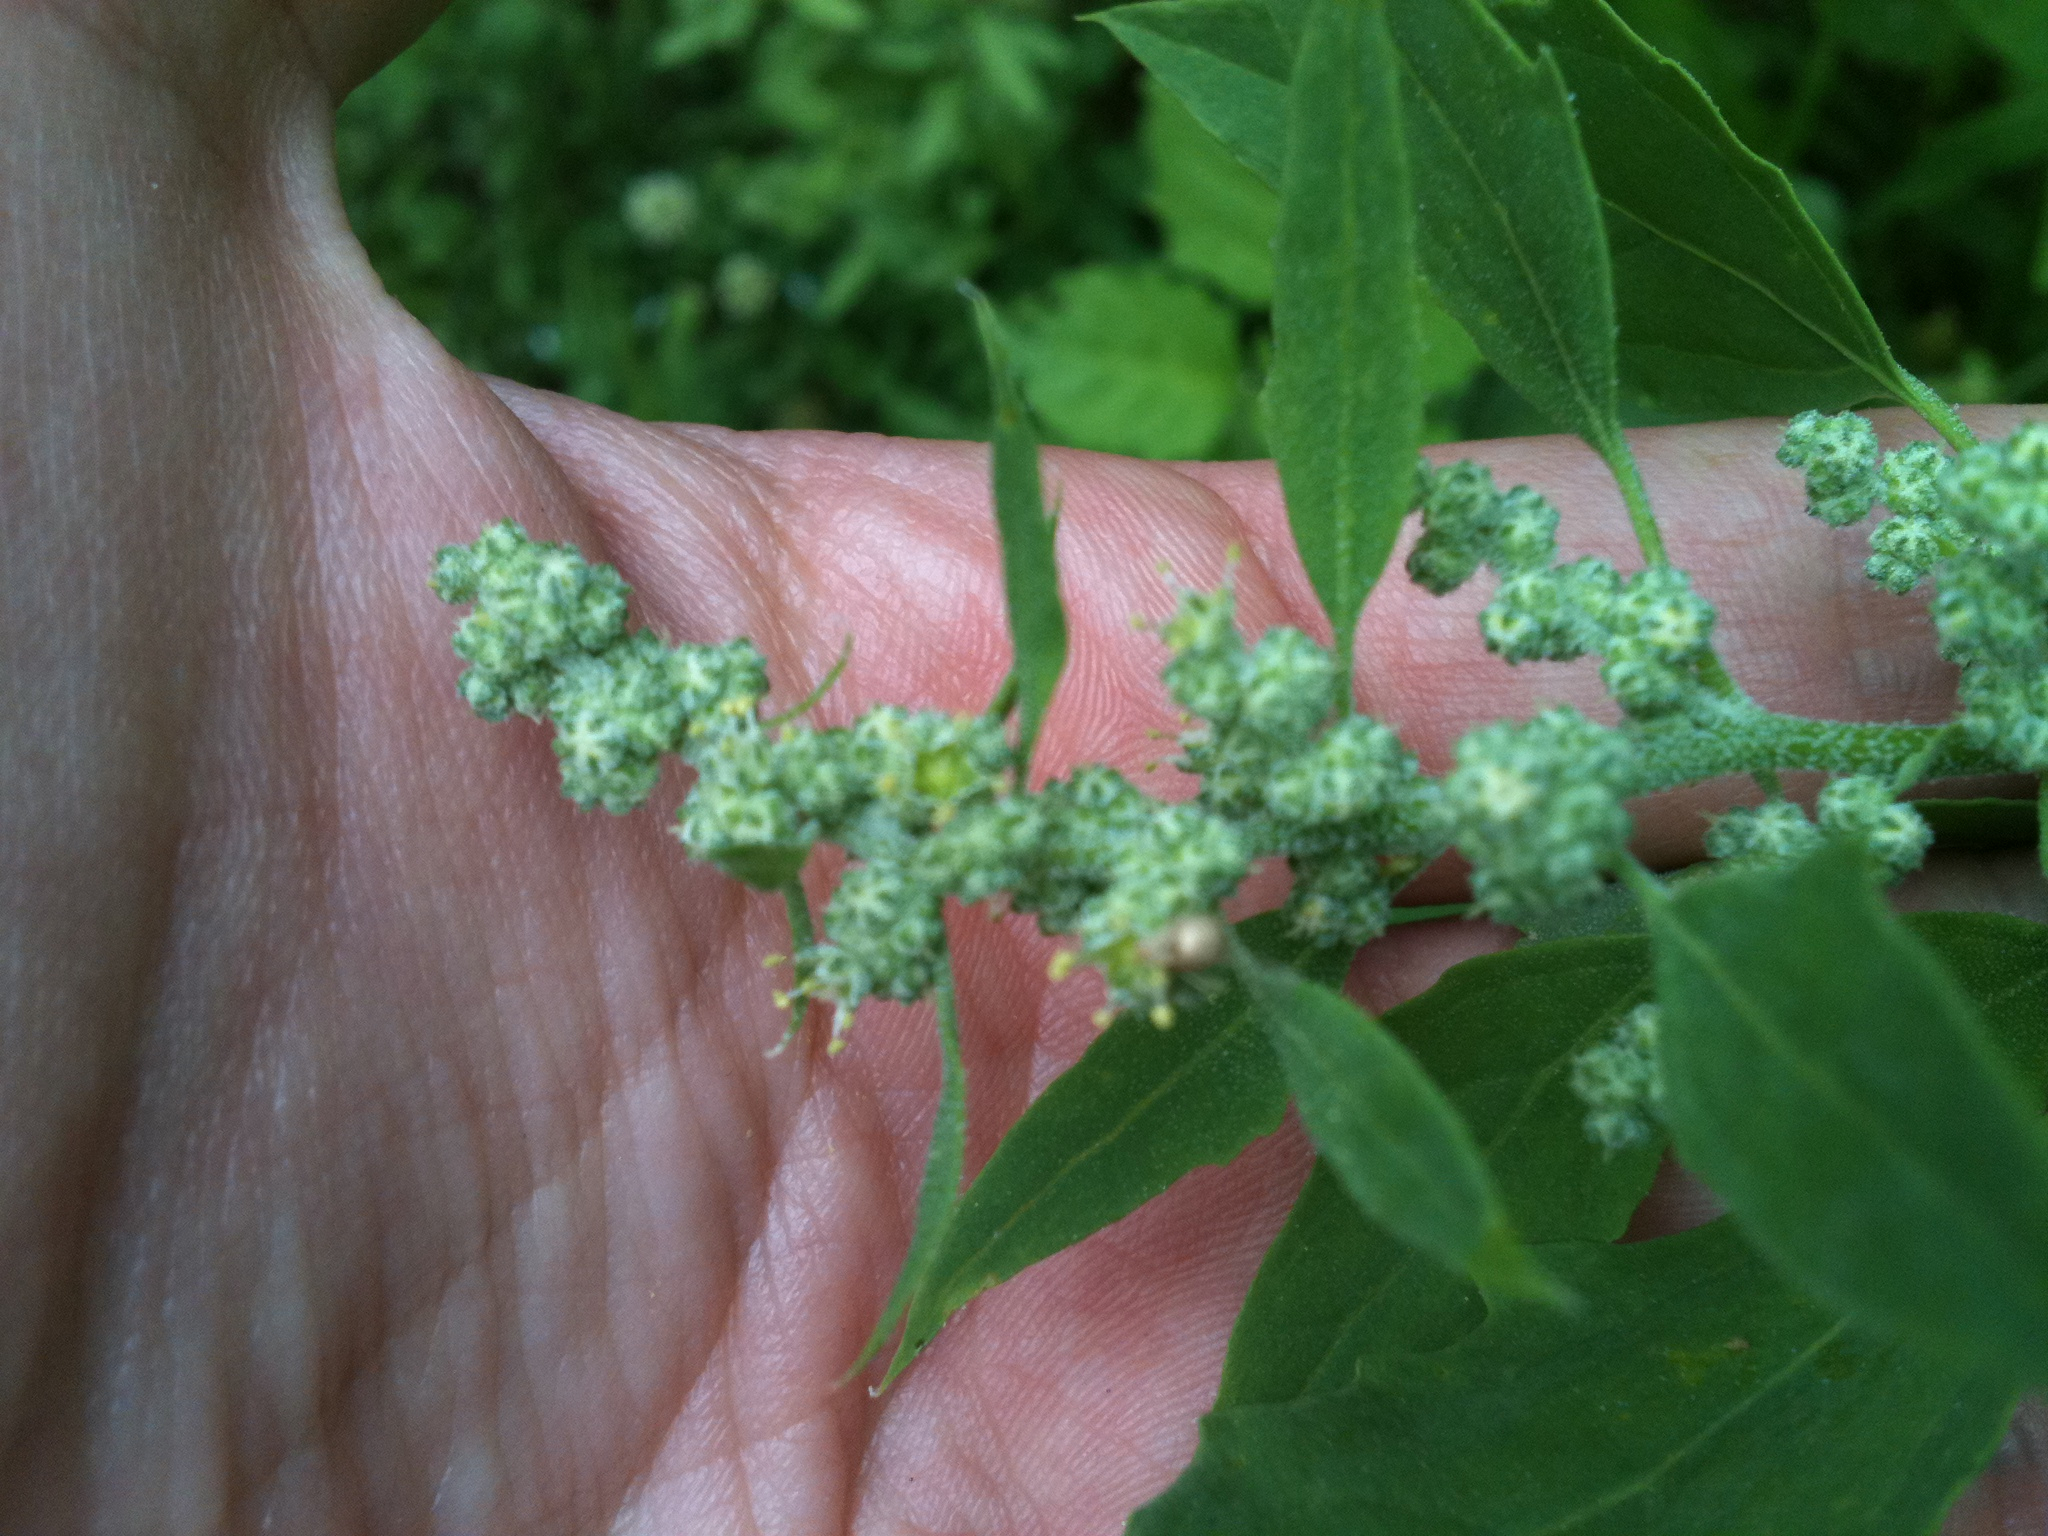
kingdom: Plantae
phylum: Tracheophyta
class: Magnoliopsida
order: Caryophyllales
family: Amaranthaceae
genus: Chenopodium
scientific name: Chenopodium album
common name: Fat-hen
